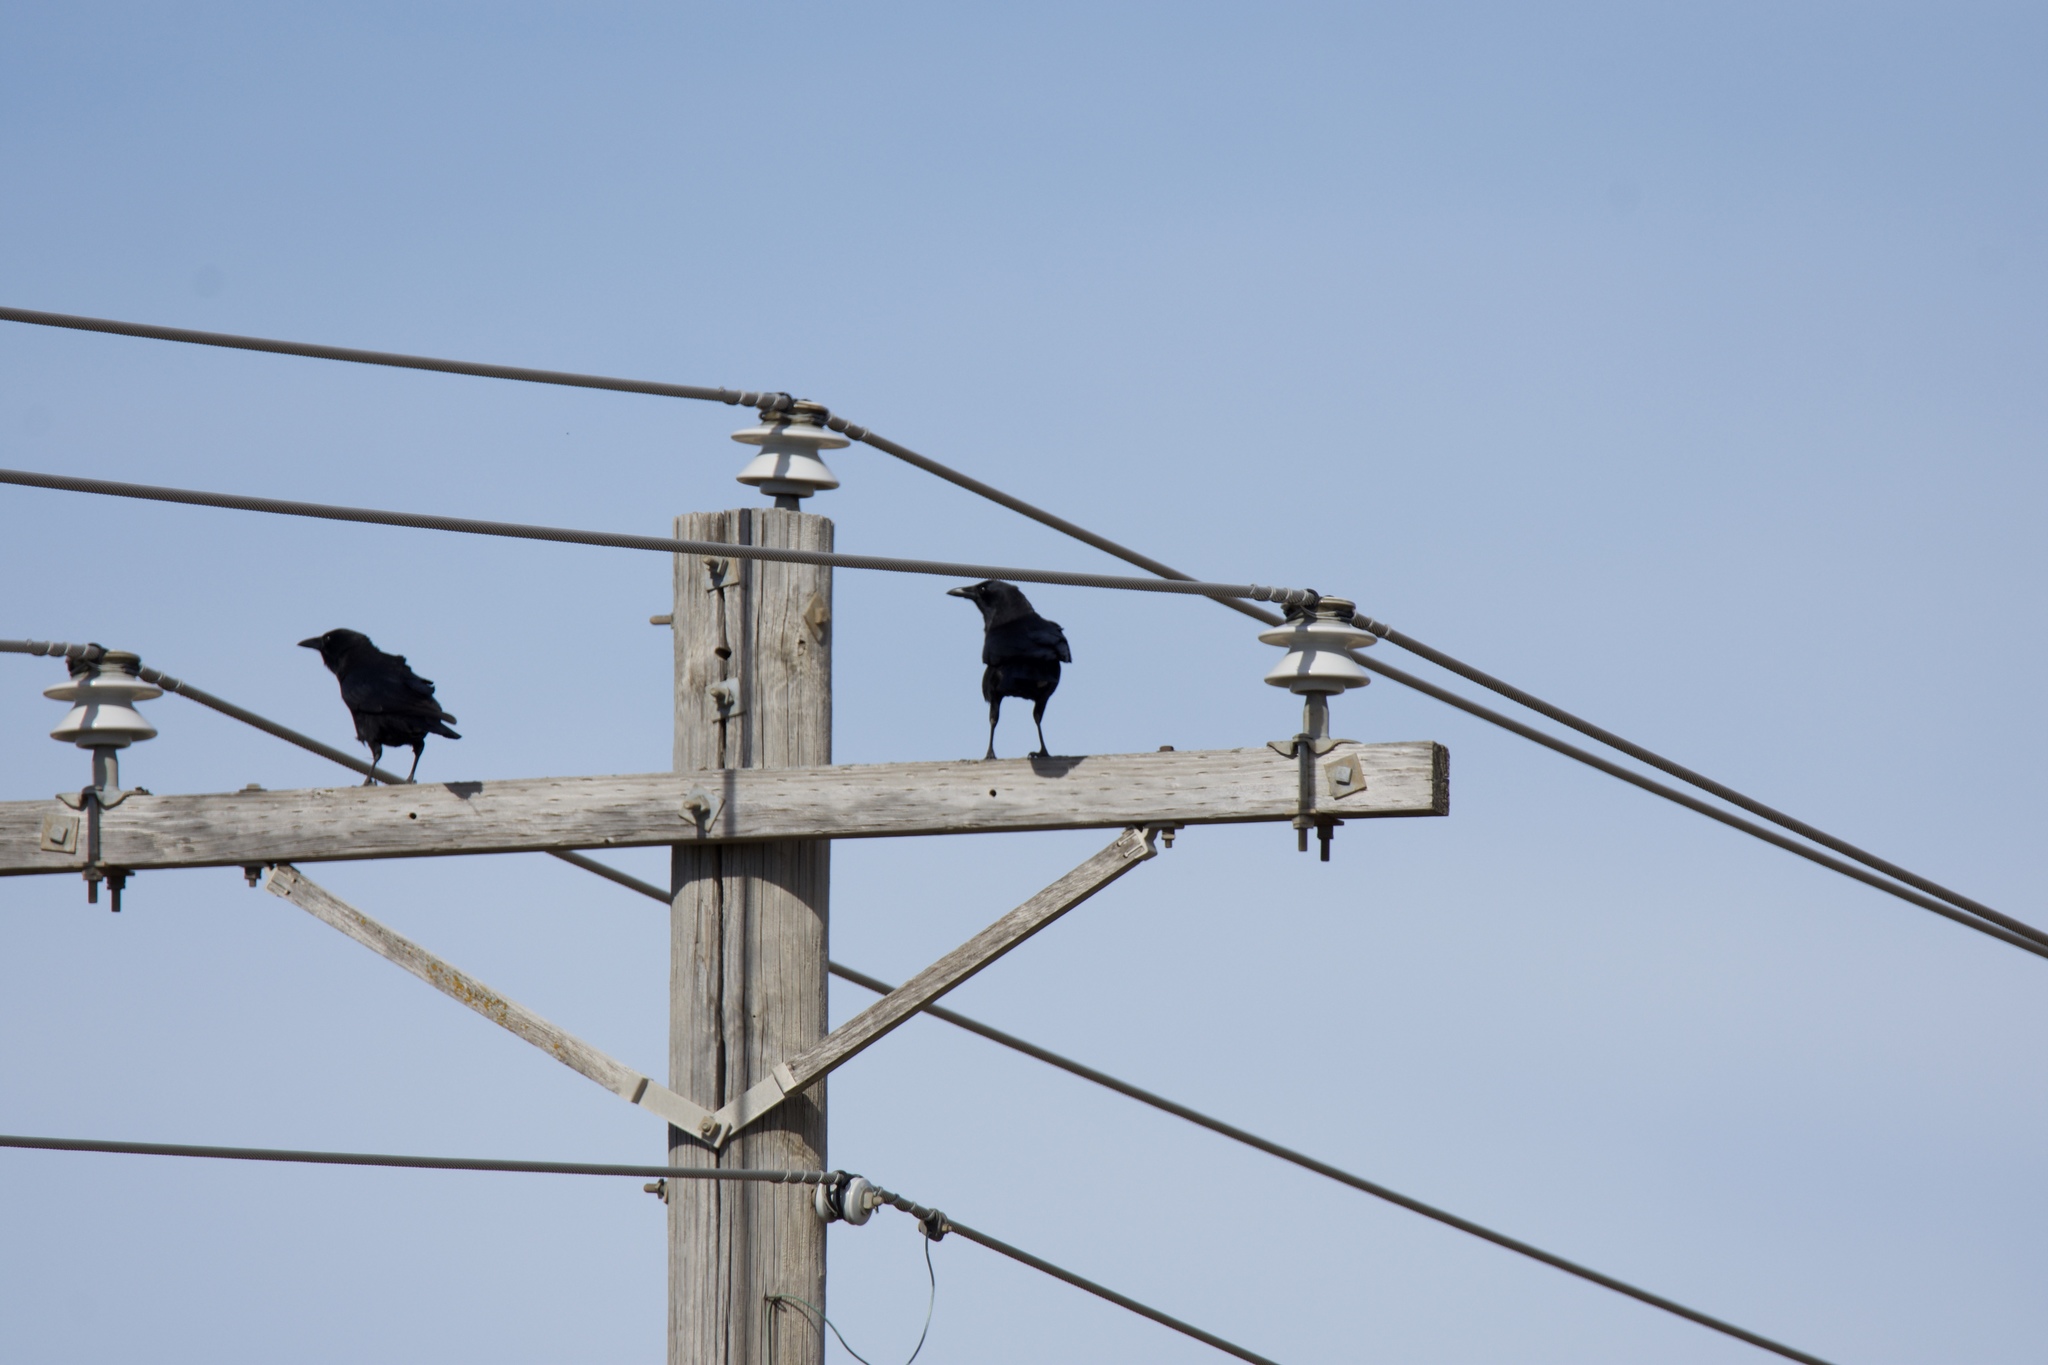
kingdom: Animalia
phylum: Chordata
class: Aves
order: Passeriformes
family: Corvidae
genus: Corvus
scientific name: Corvus brachyrhynchos
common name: American crow
